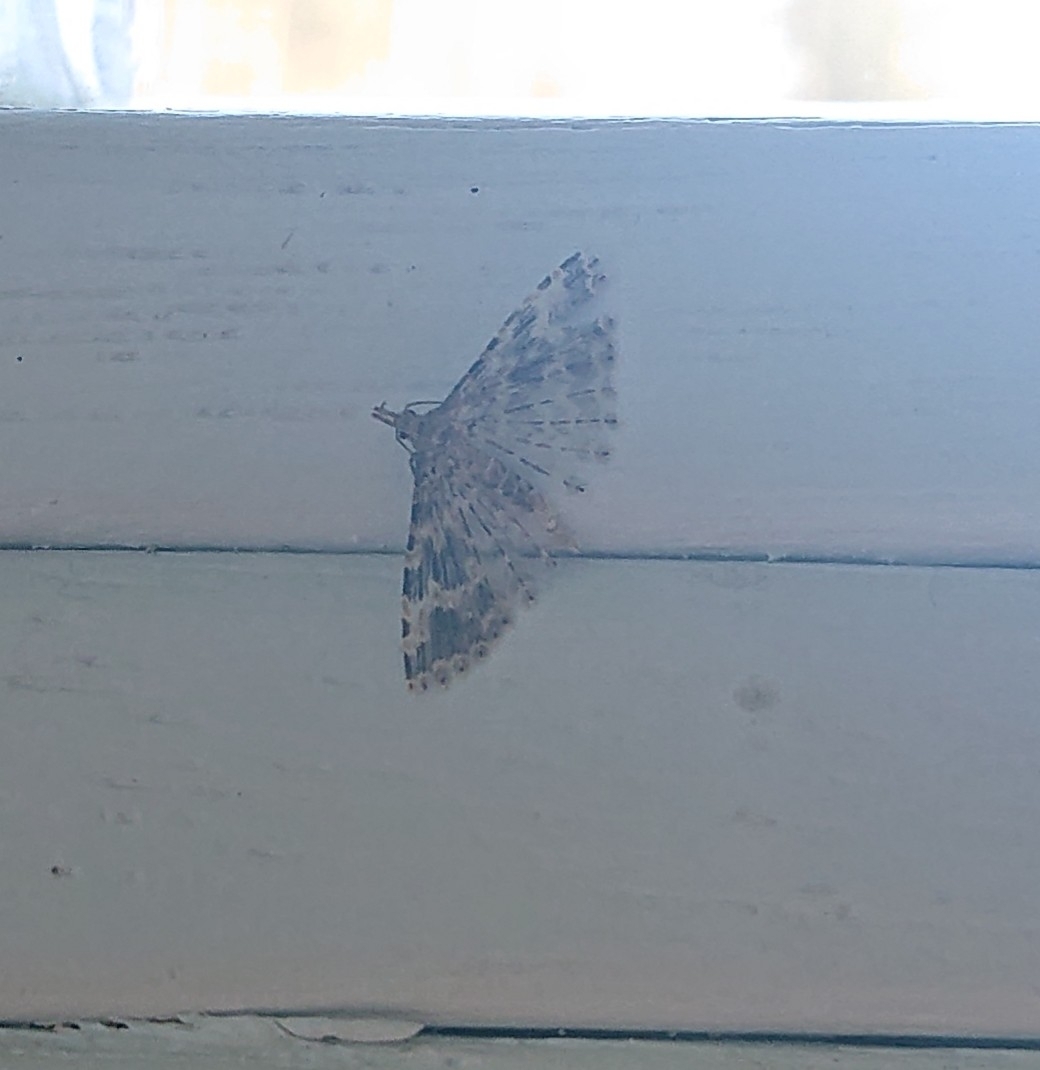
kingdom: Animalia
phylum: Arthropoda
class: Insecta
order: Lepidoptera
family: Alucitidae
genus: Alucita
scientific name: Alucita hexadactyla
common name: Twenty-plume moth
